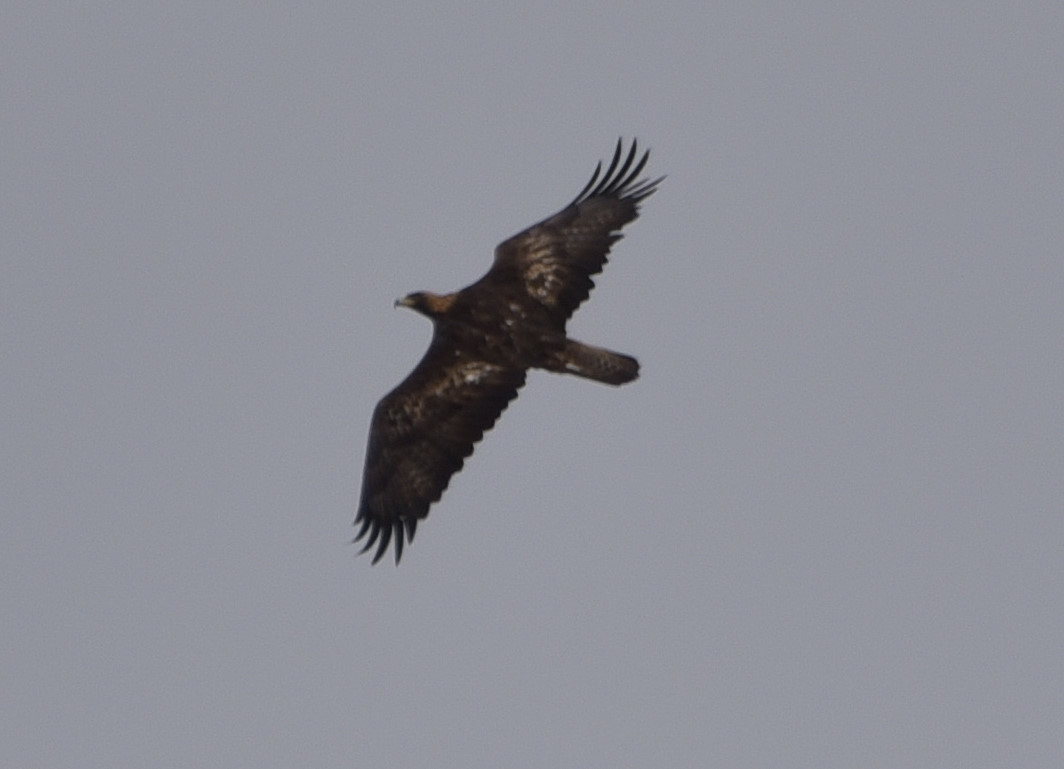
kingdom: Animalia
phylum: Chordata
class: Aves
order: Accipitriformes
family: Accipitridae
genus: Aquila
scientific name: Aquila chrysaetos
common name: Golden eagle
